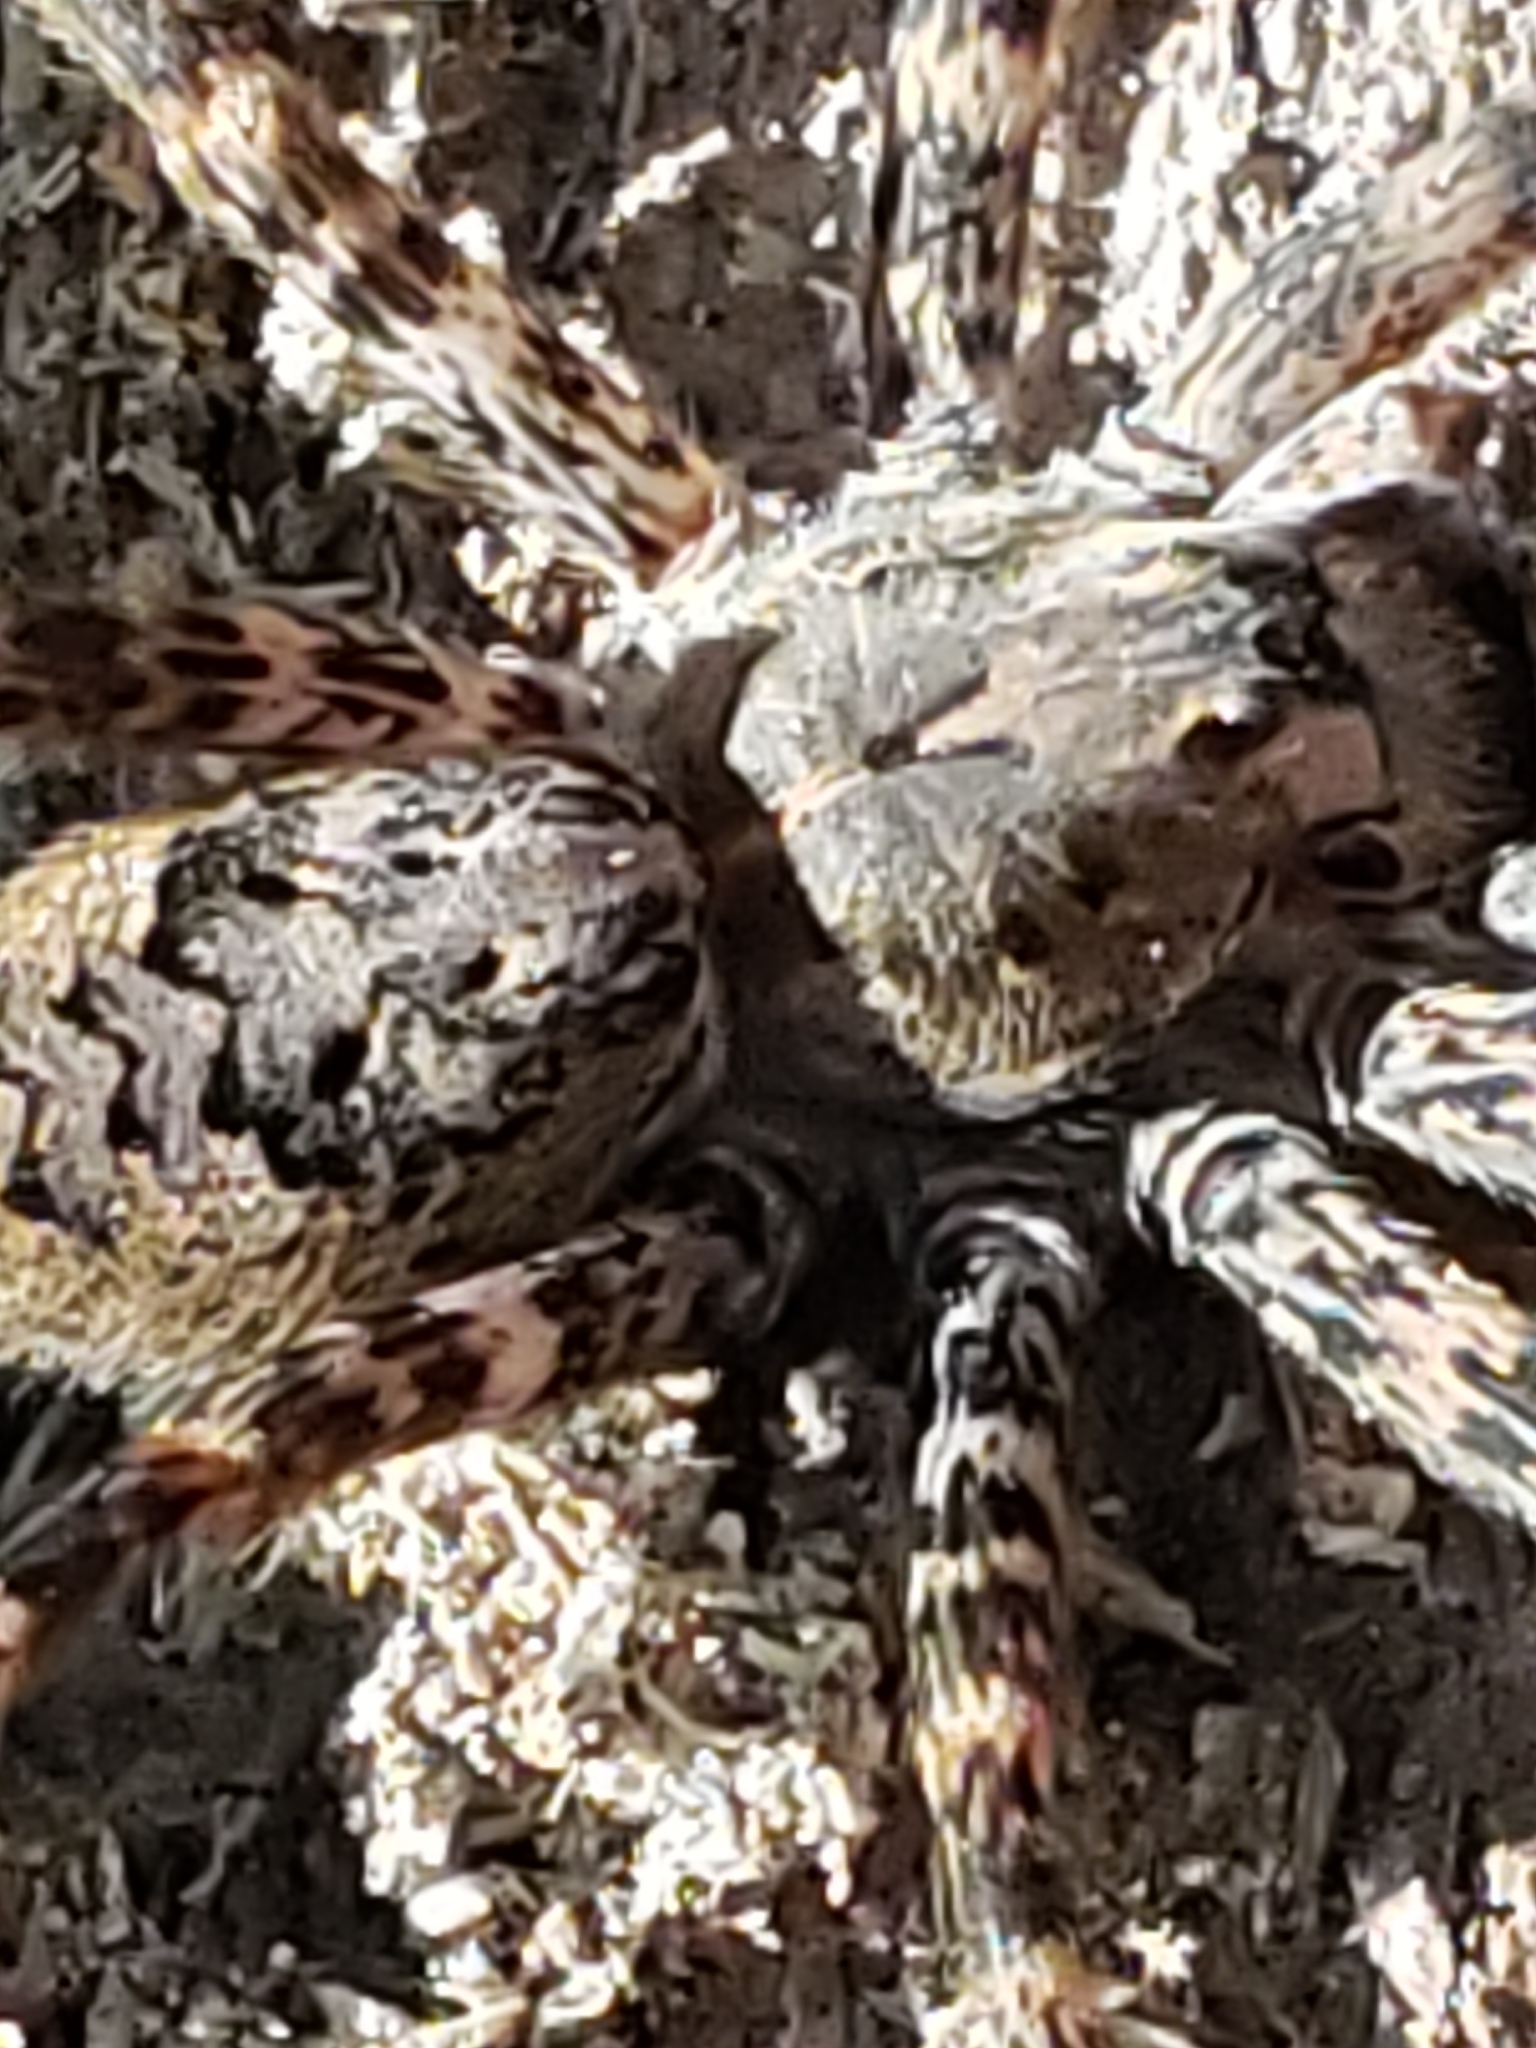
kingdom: Animalia
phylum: Arthropoda
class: Arachnida
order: Araneae
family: Pisauridae
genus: Dolomedes
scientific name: Dolomedes tenebrosus
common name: Dark fishing spider
